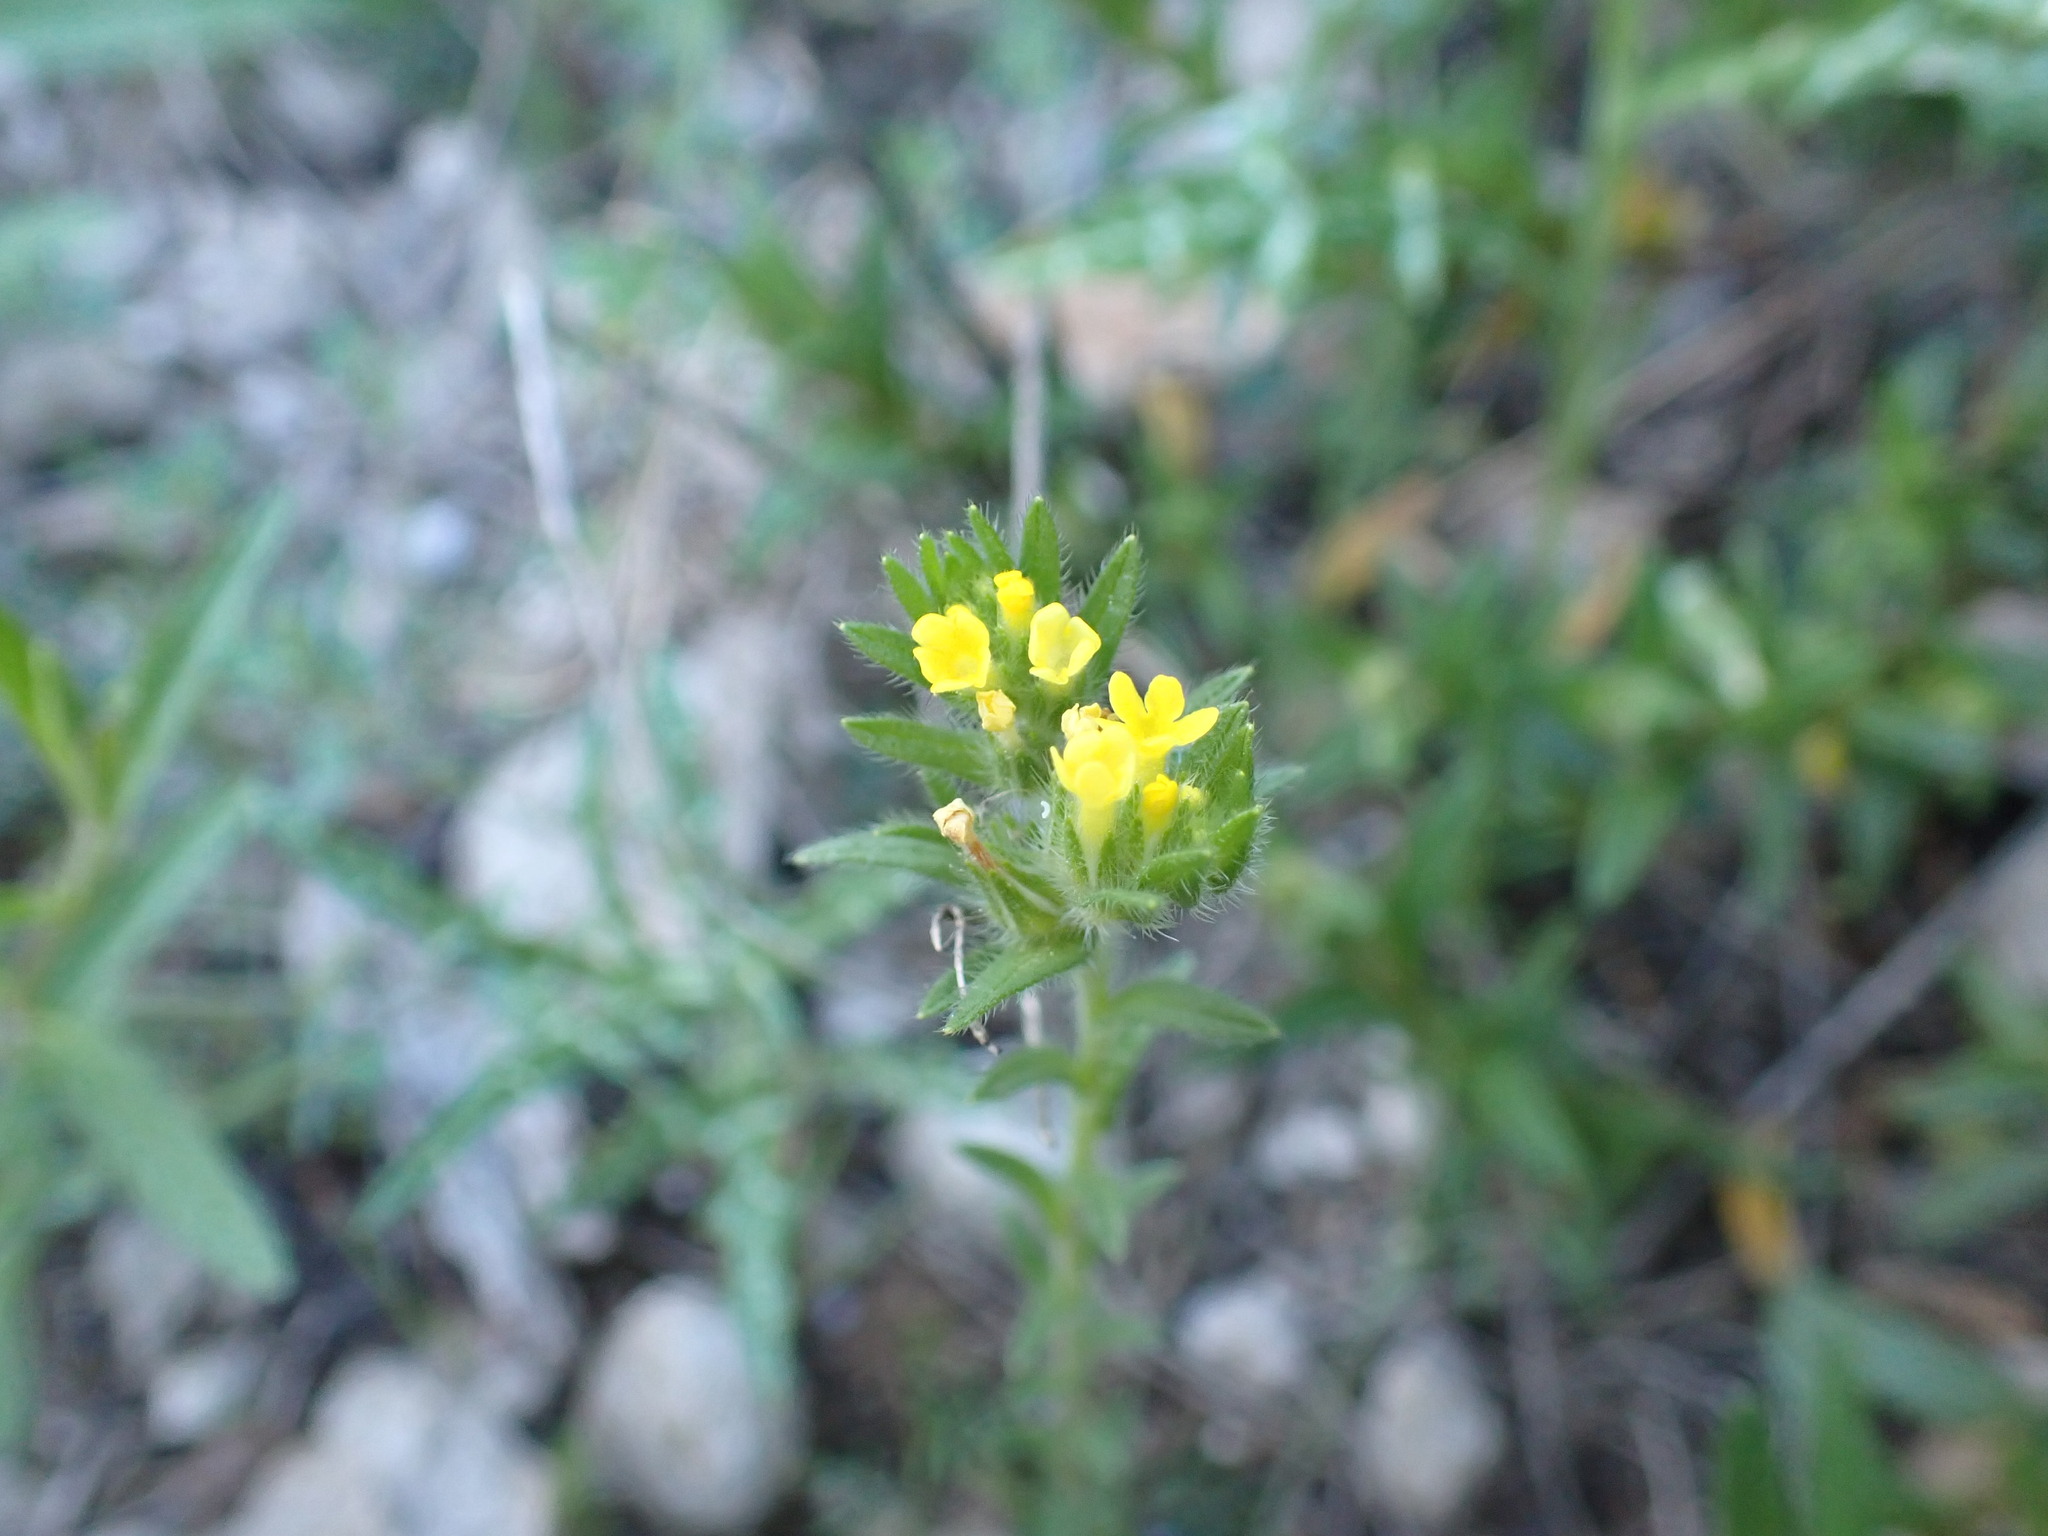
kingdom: Plantae
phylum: Tracheophyta
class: Magnoliopsida
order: Boraginales
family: Boraginaceae
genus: Neatostema
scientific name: Neatostema apulum
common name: Hairy sheepweed
